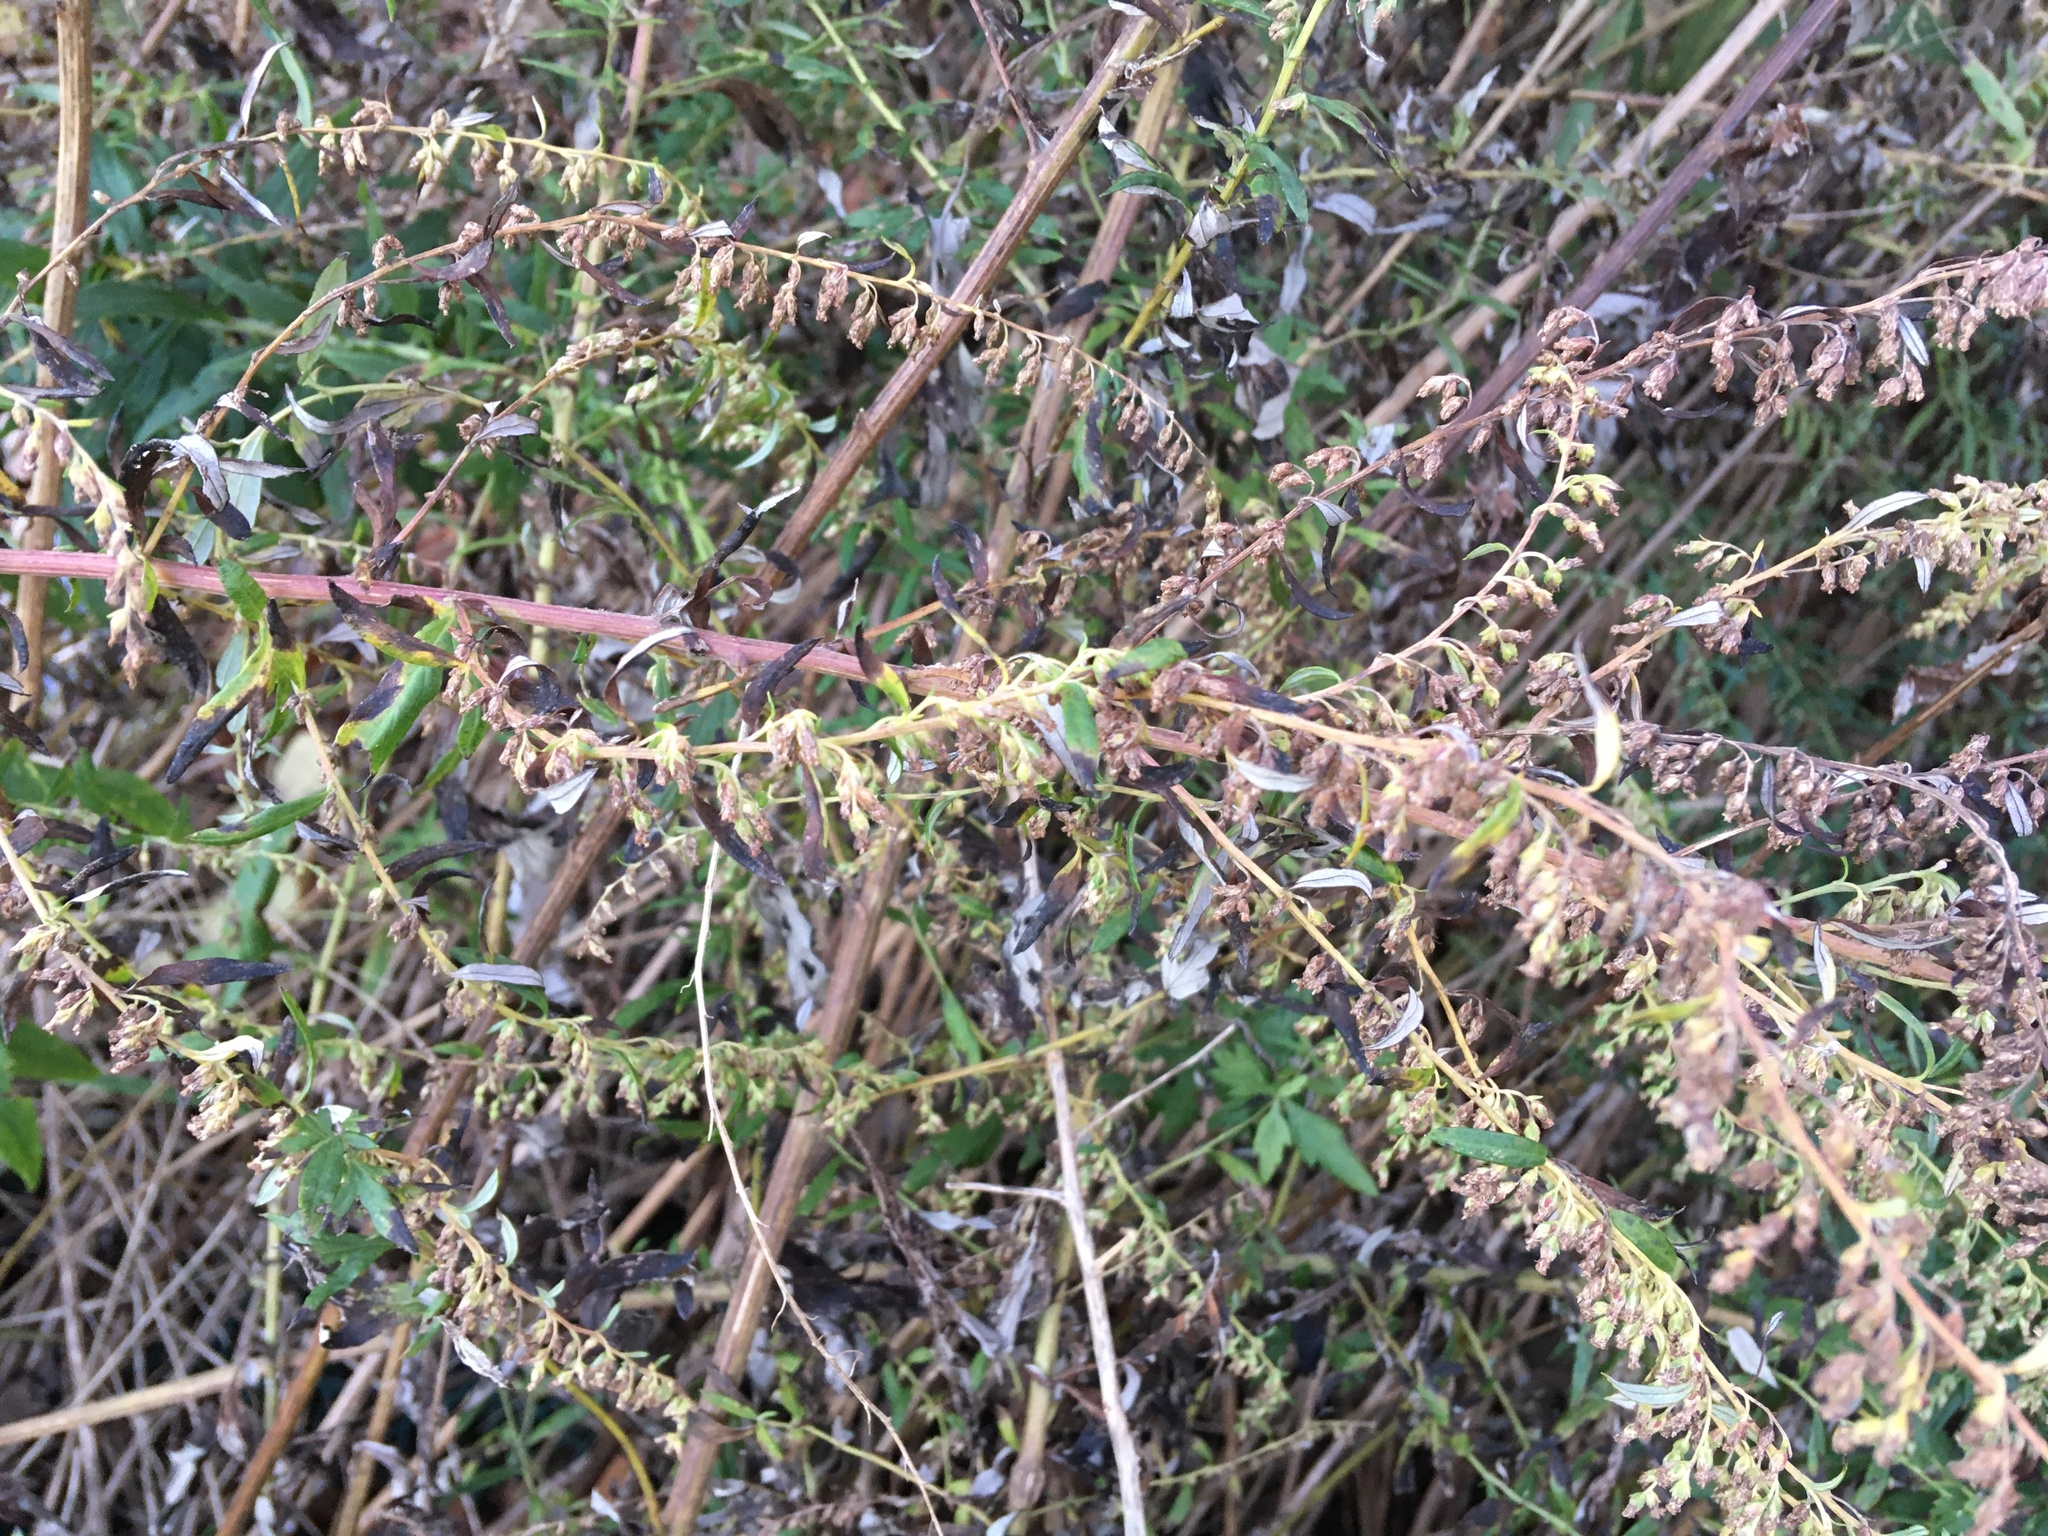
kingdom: Plantae
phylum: Tracheophyta
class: Magnoliopsida
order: Asterales
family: Asteraceae
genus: Artemisia
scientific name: Artemisia vulgaris
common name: Mugwort
